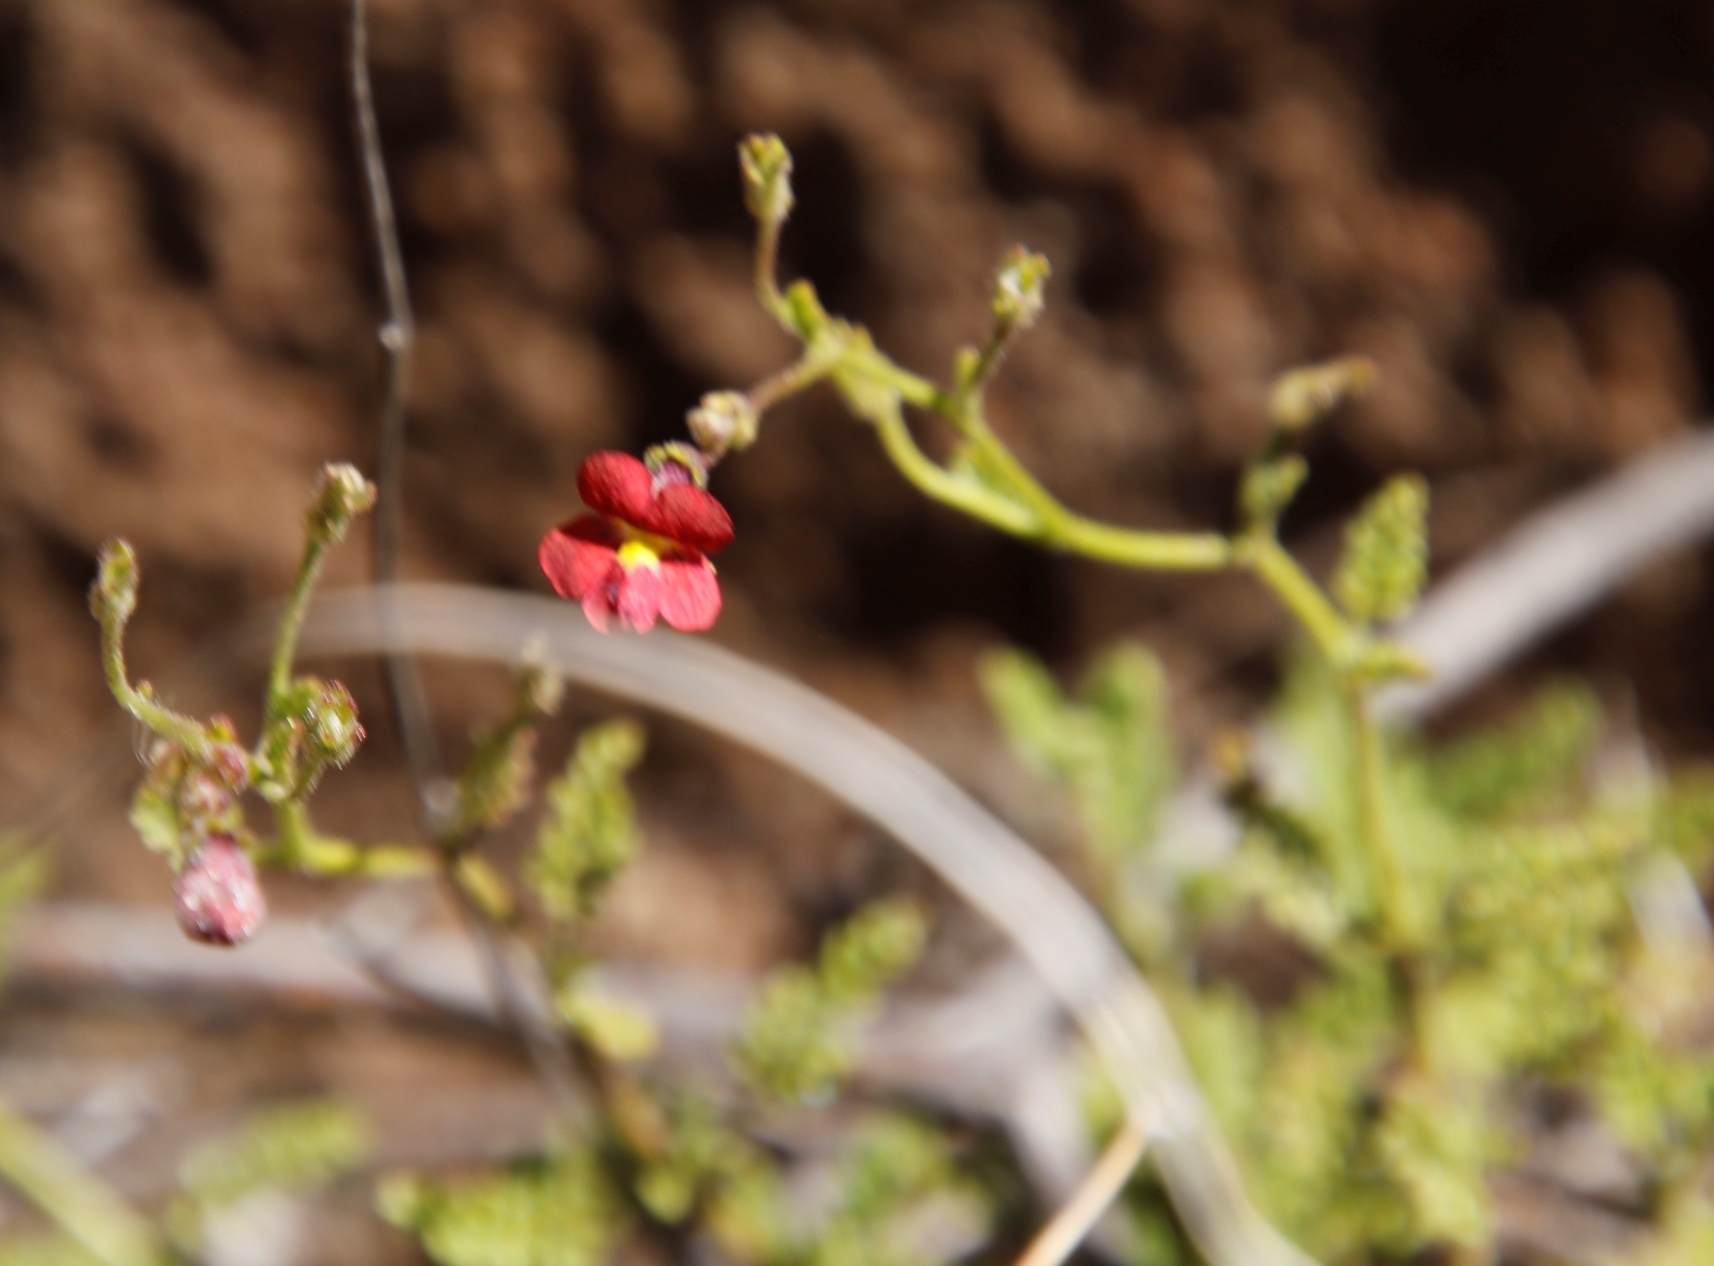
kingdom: Plantae
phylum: Tracheophyta
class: Magnoliopsida
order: Lamiales
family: Scrophulariaceae
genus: Jamesbrittenia
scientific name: Jamesbrittenia breviflora
